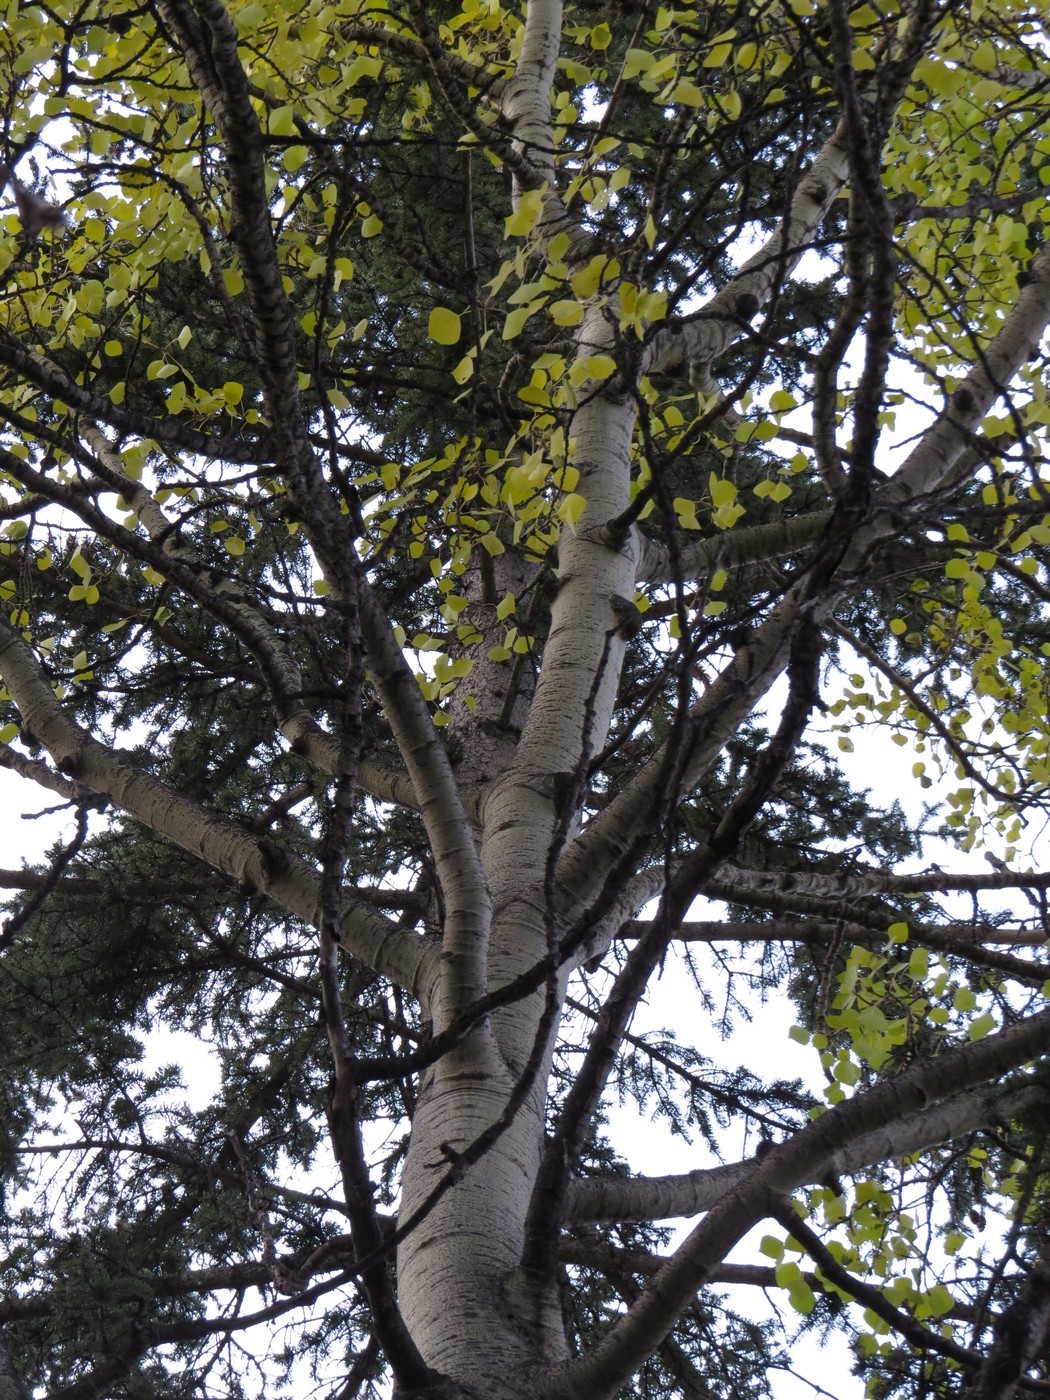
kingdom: Plantae
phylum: Tracheophyta
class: Magnoliopsida
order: Malpighiales
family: Salicaceae
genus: Populus
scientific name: Populus tremuloides
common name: Quaking aspen
